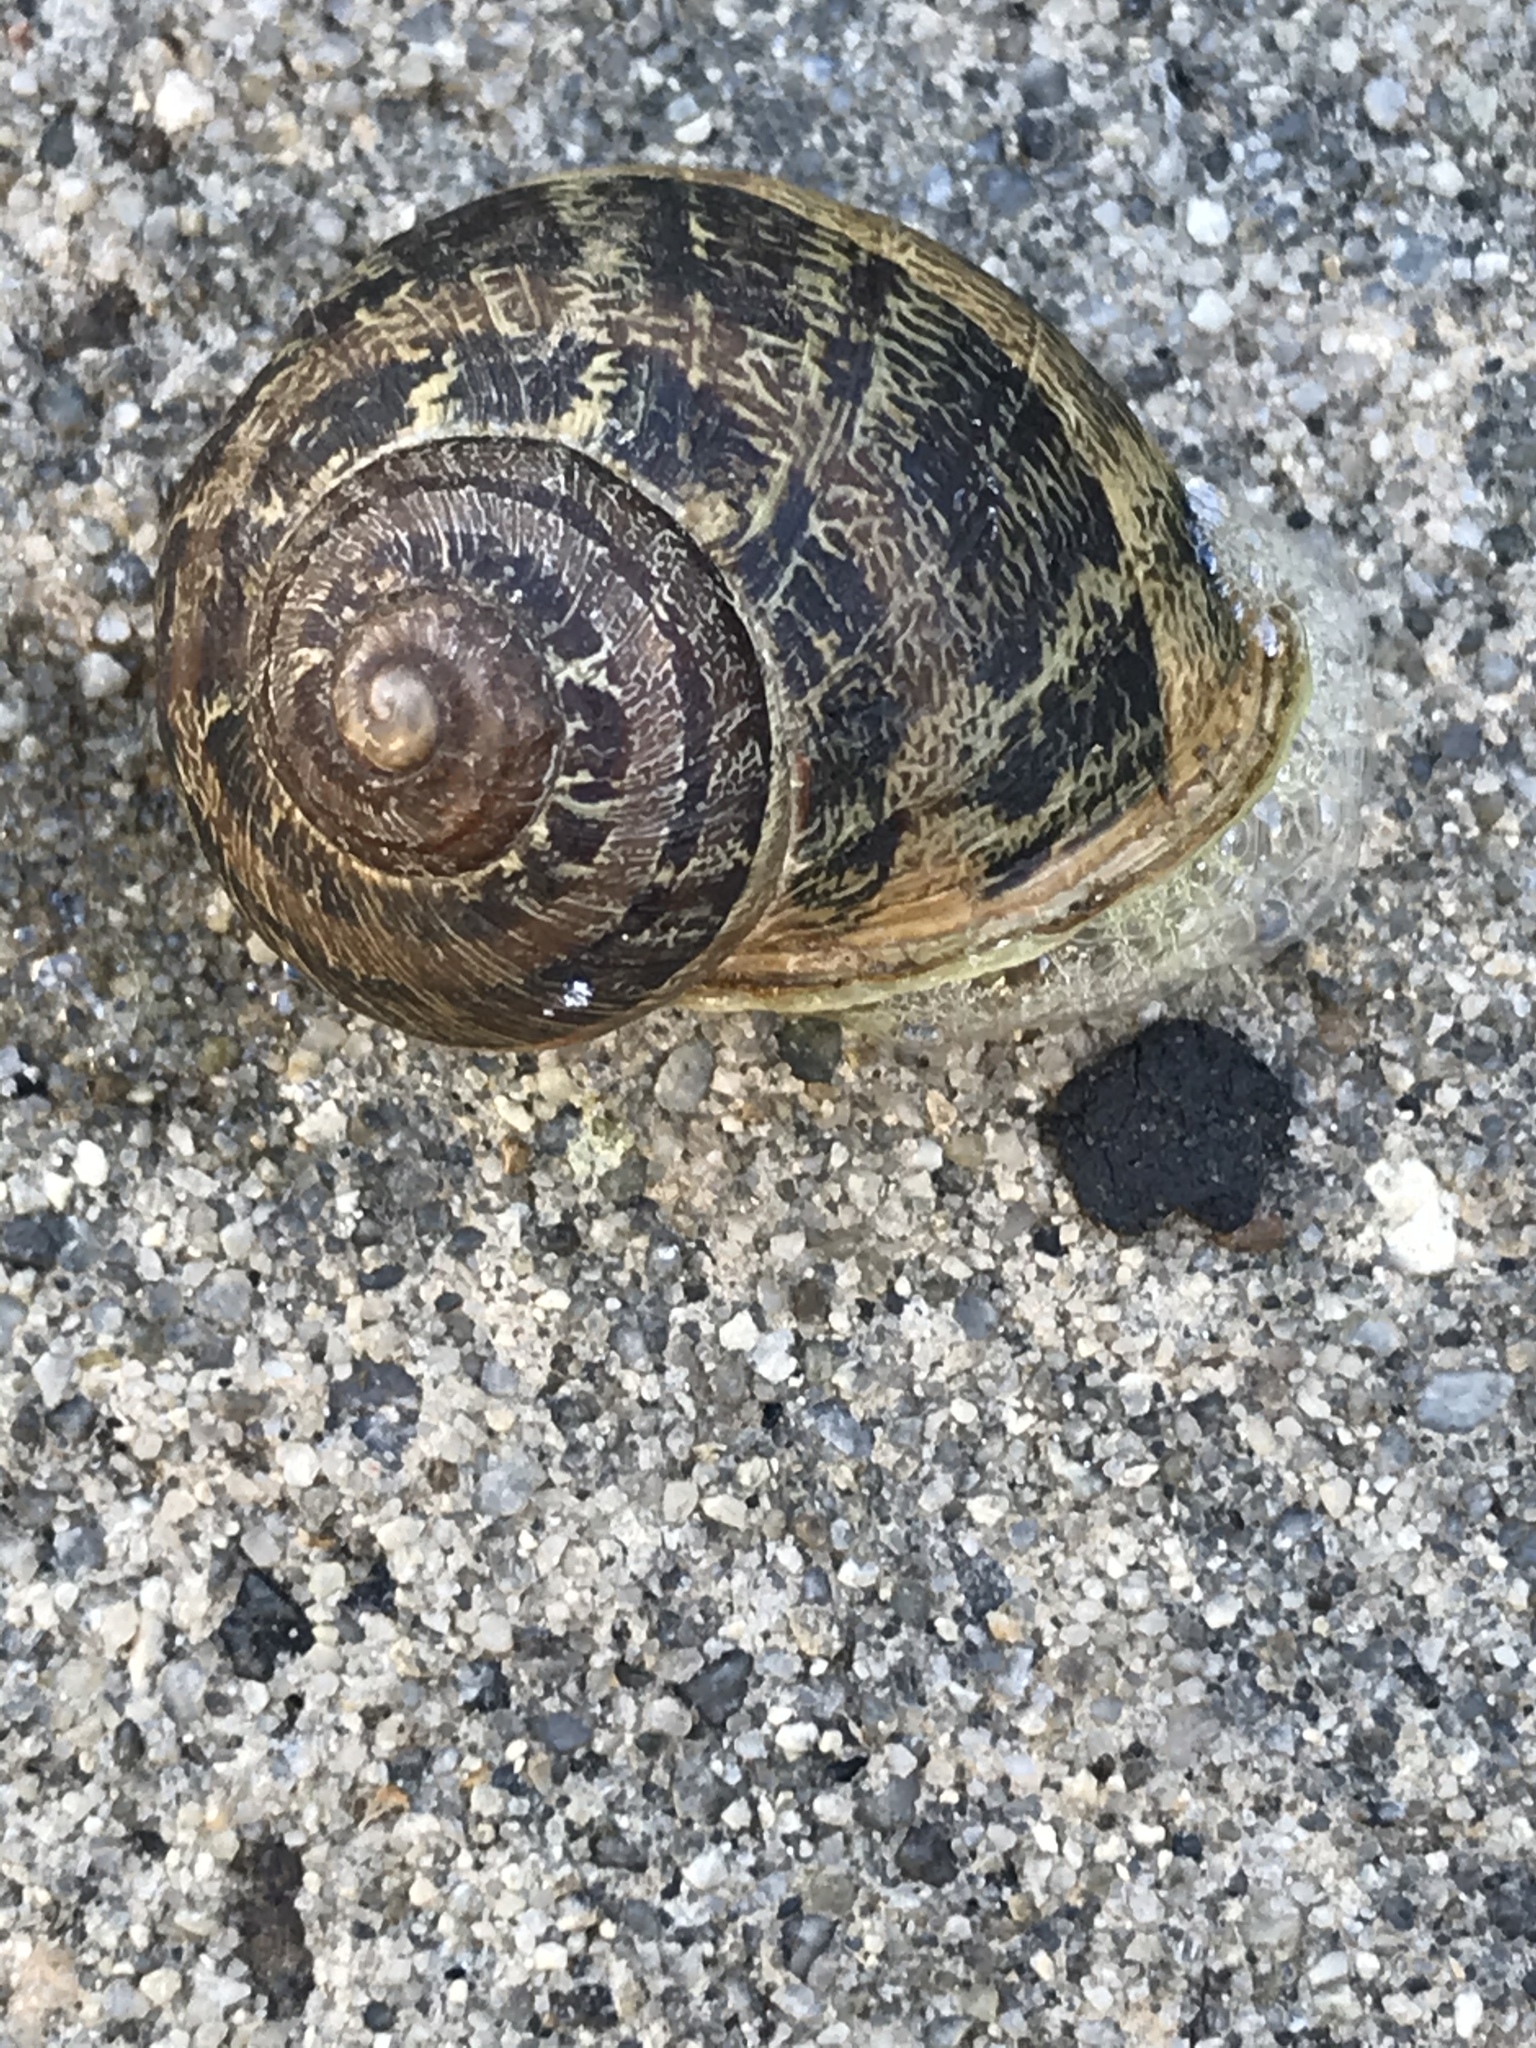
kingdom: Animalia
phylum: Mollusca
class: Gastropoda
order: Stylommatophora
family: Helicidae
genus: Cornu
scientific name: Cornu aspersum
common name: Brown garden snail
